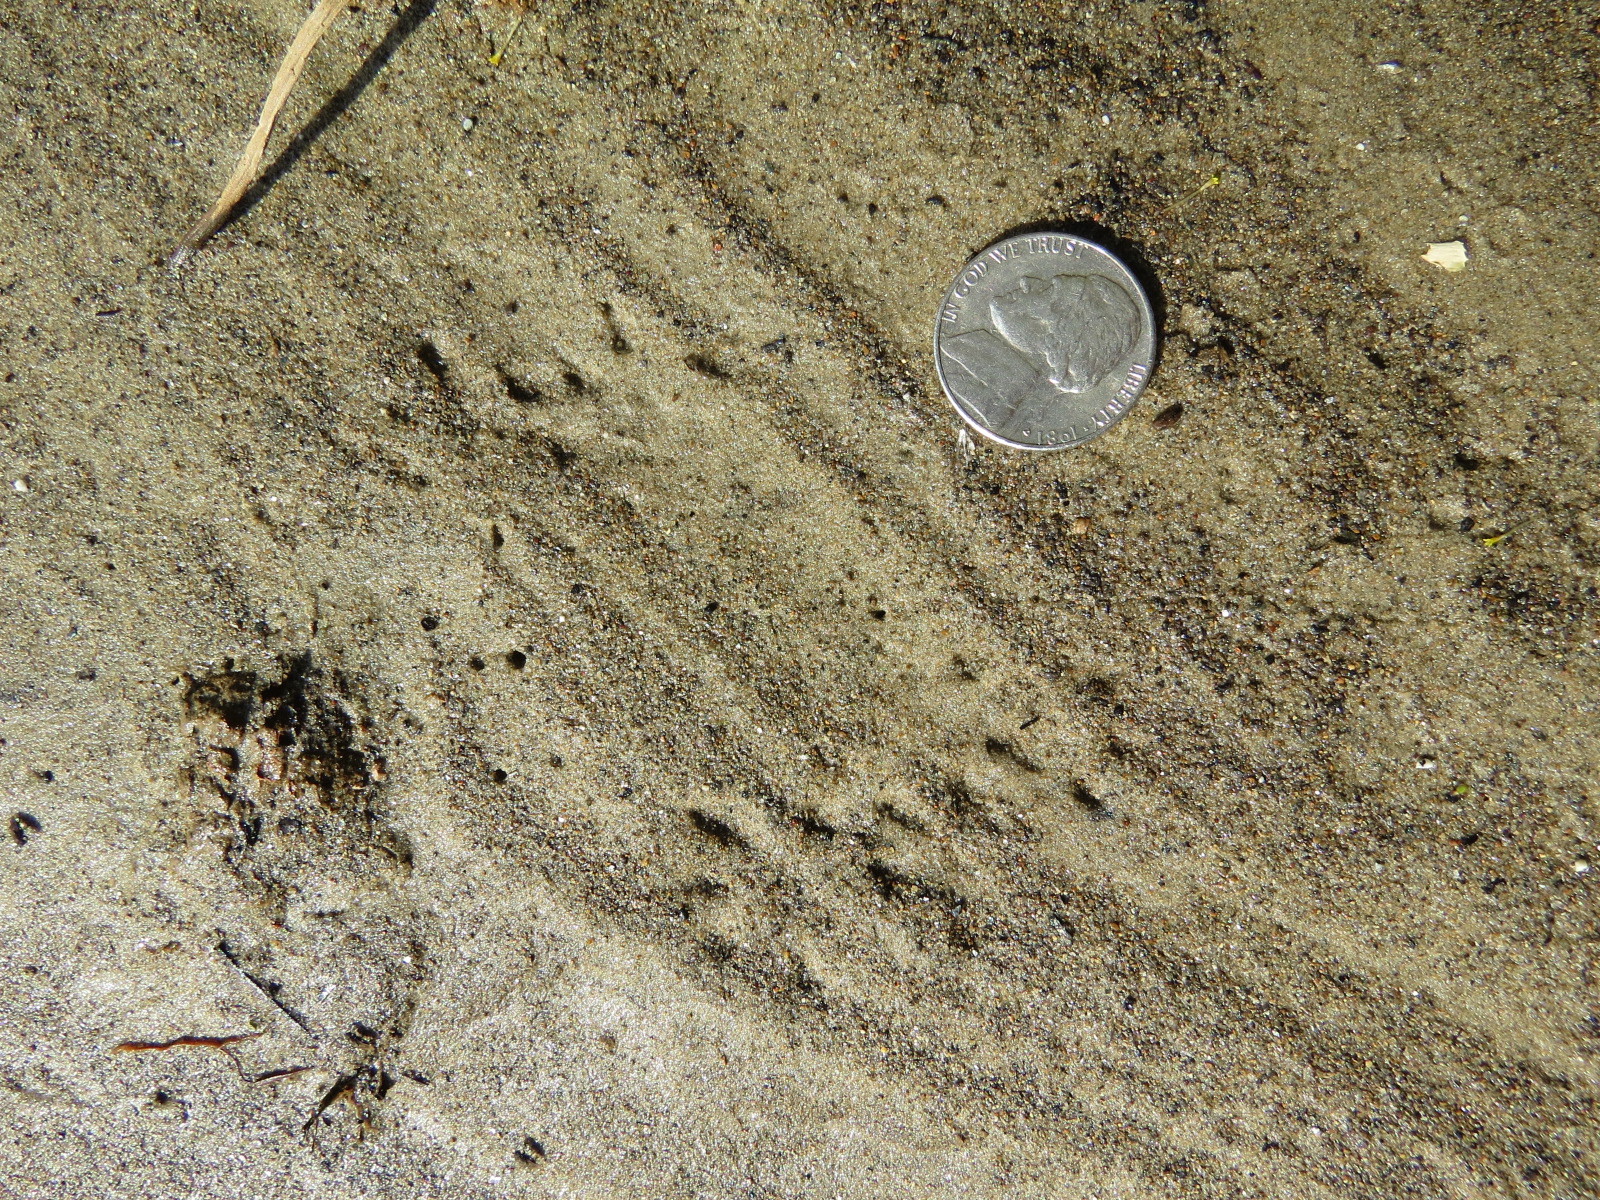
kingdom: Animalia
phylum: Chordata
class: Mammalia
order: Carnivora
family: Mustelidae
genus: Mustela
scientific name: Mustela
